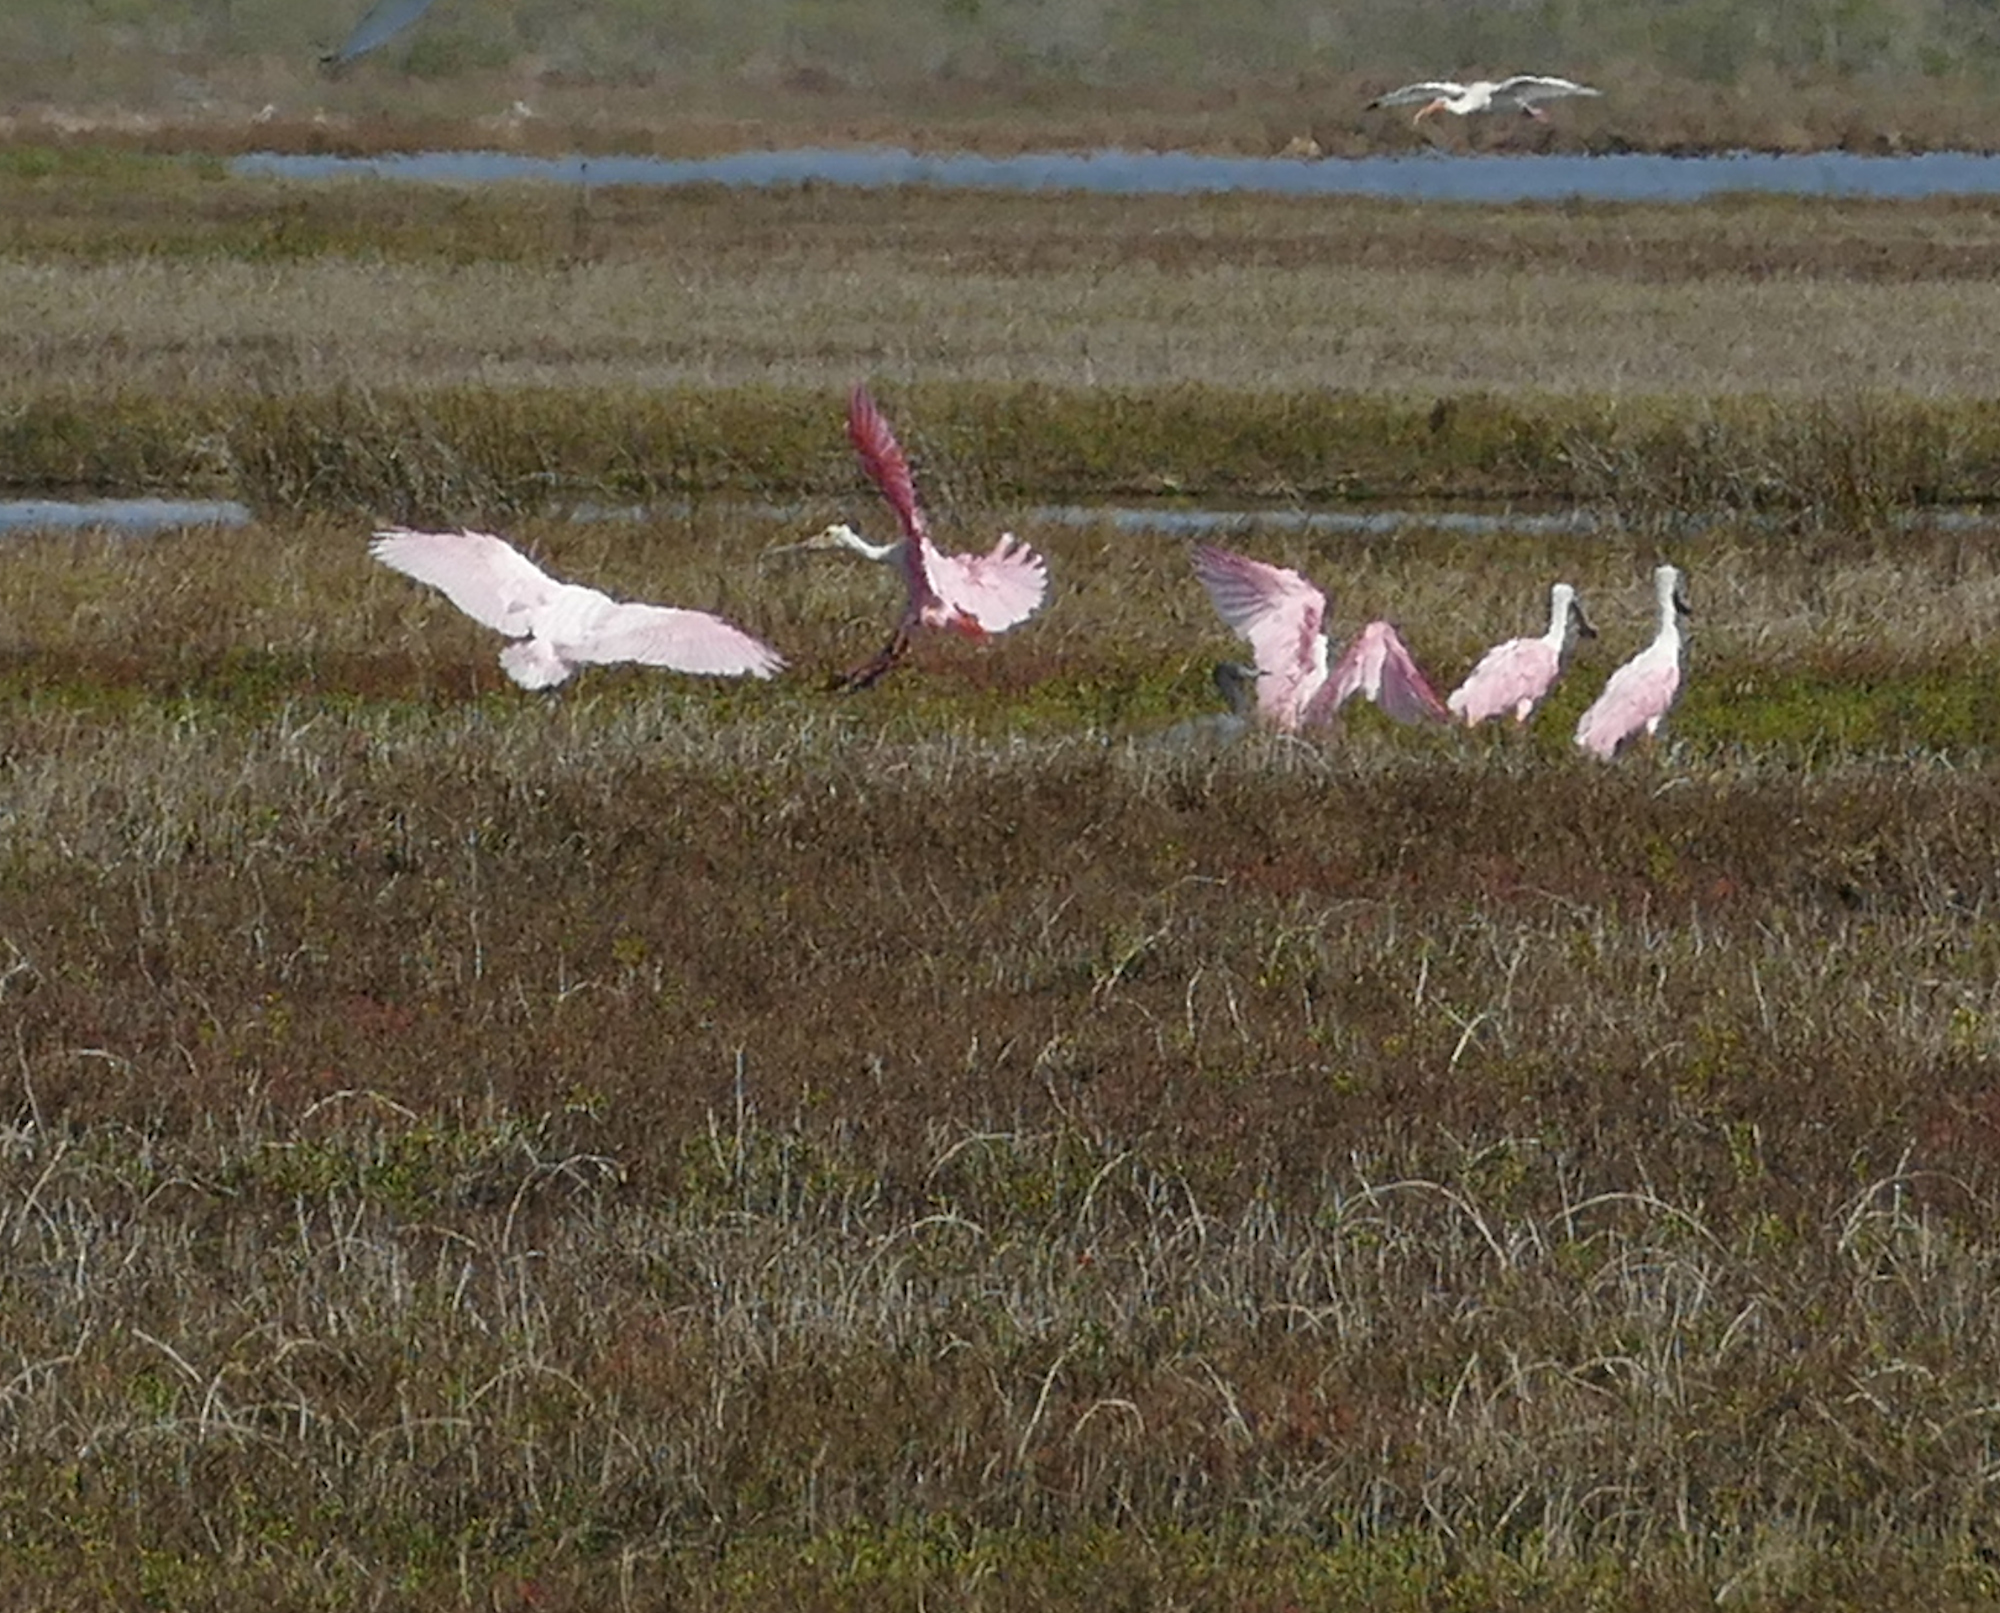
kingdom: Animalia
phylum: Chordata
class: Aves
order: Pelecaniformes
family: Threskiornithidae
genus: Platalea
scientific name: Platalea ajaja
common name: Roseate spoonbill
